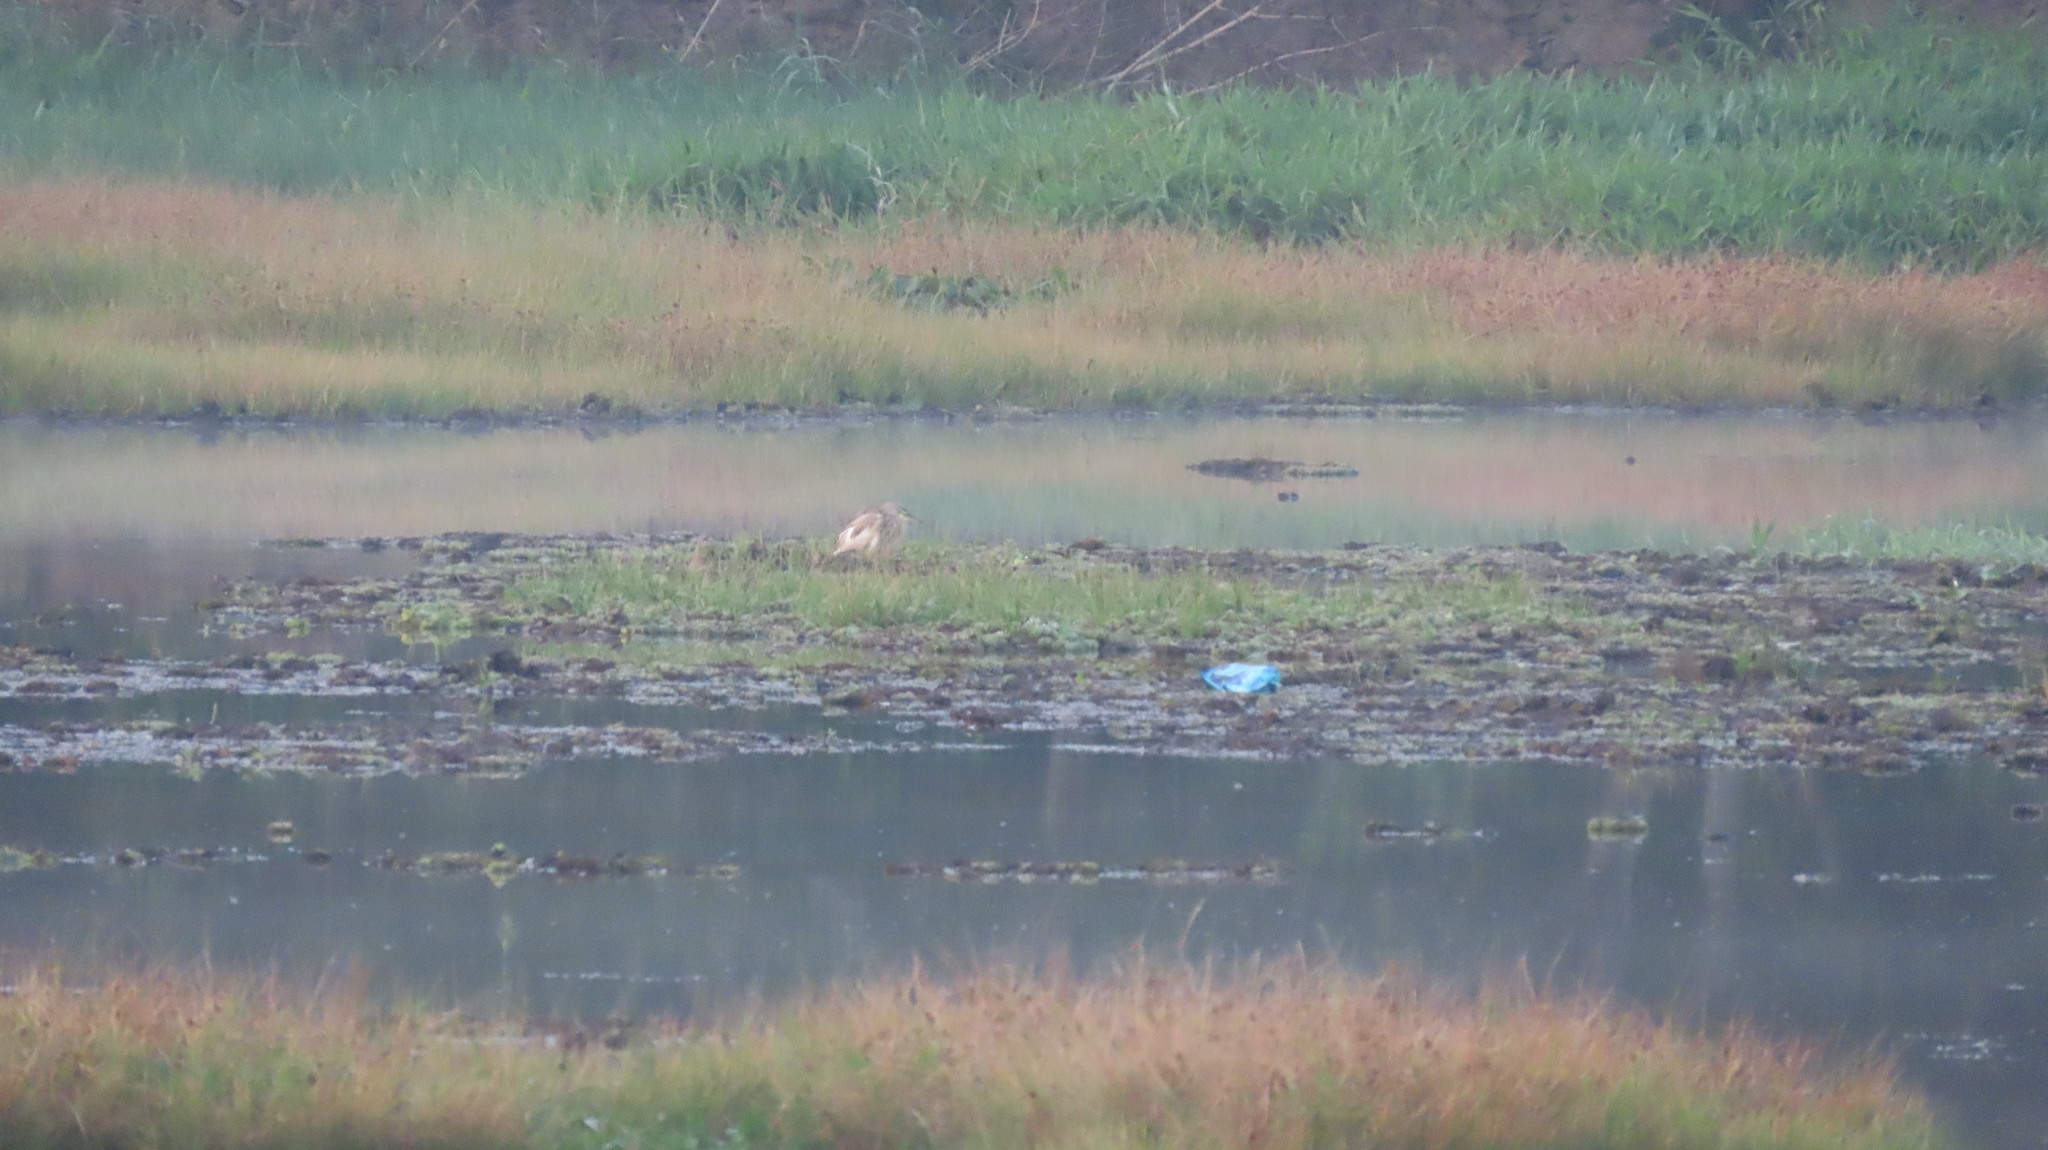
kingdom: Animalia
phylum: Chordata
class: Aves
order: Pelecaniformes
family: Ardeidae
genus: Ardeola
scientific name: Ardeola grayii
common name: Indian pond heron
